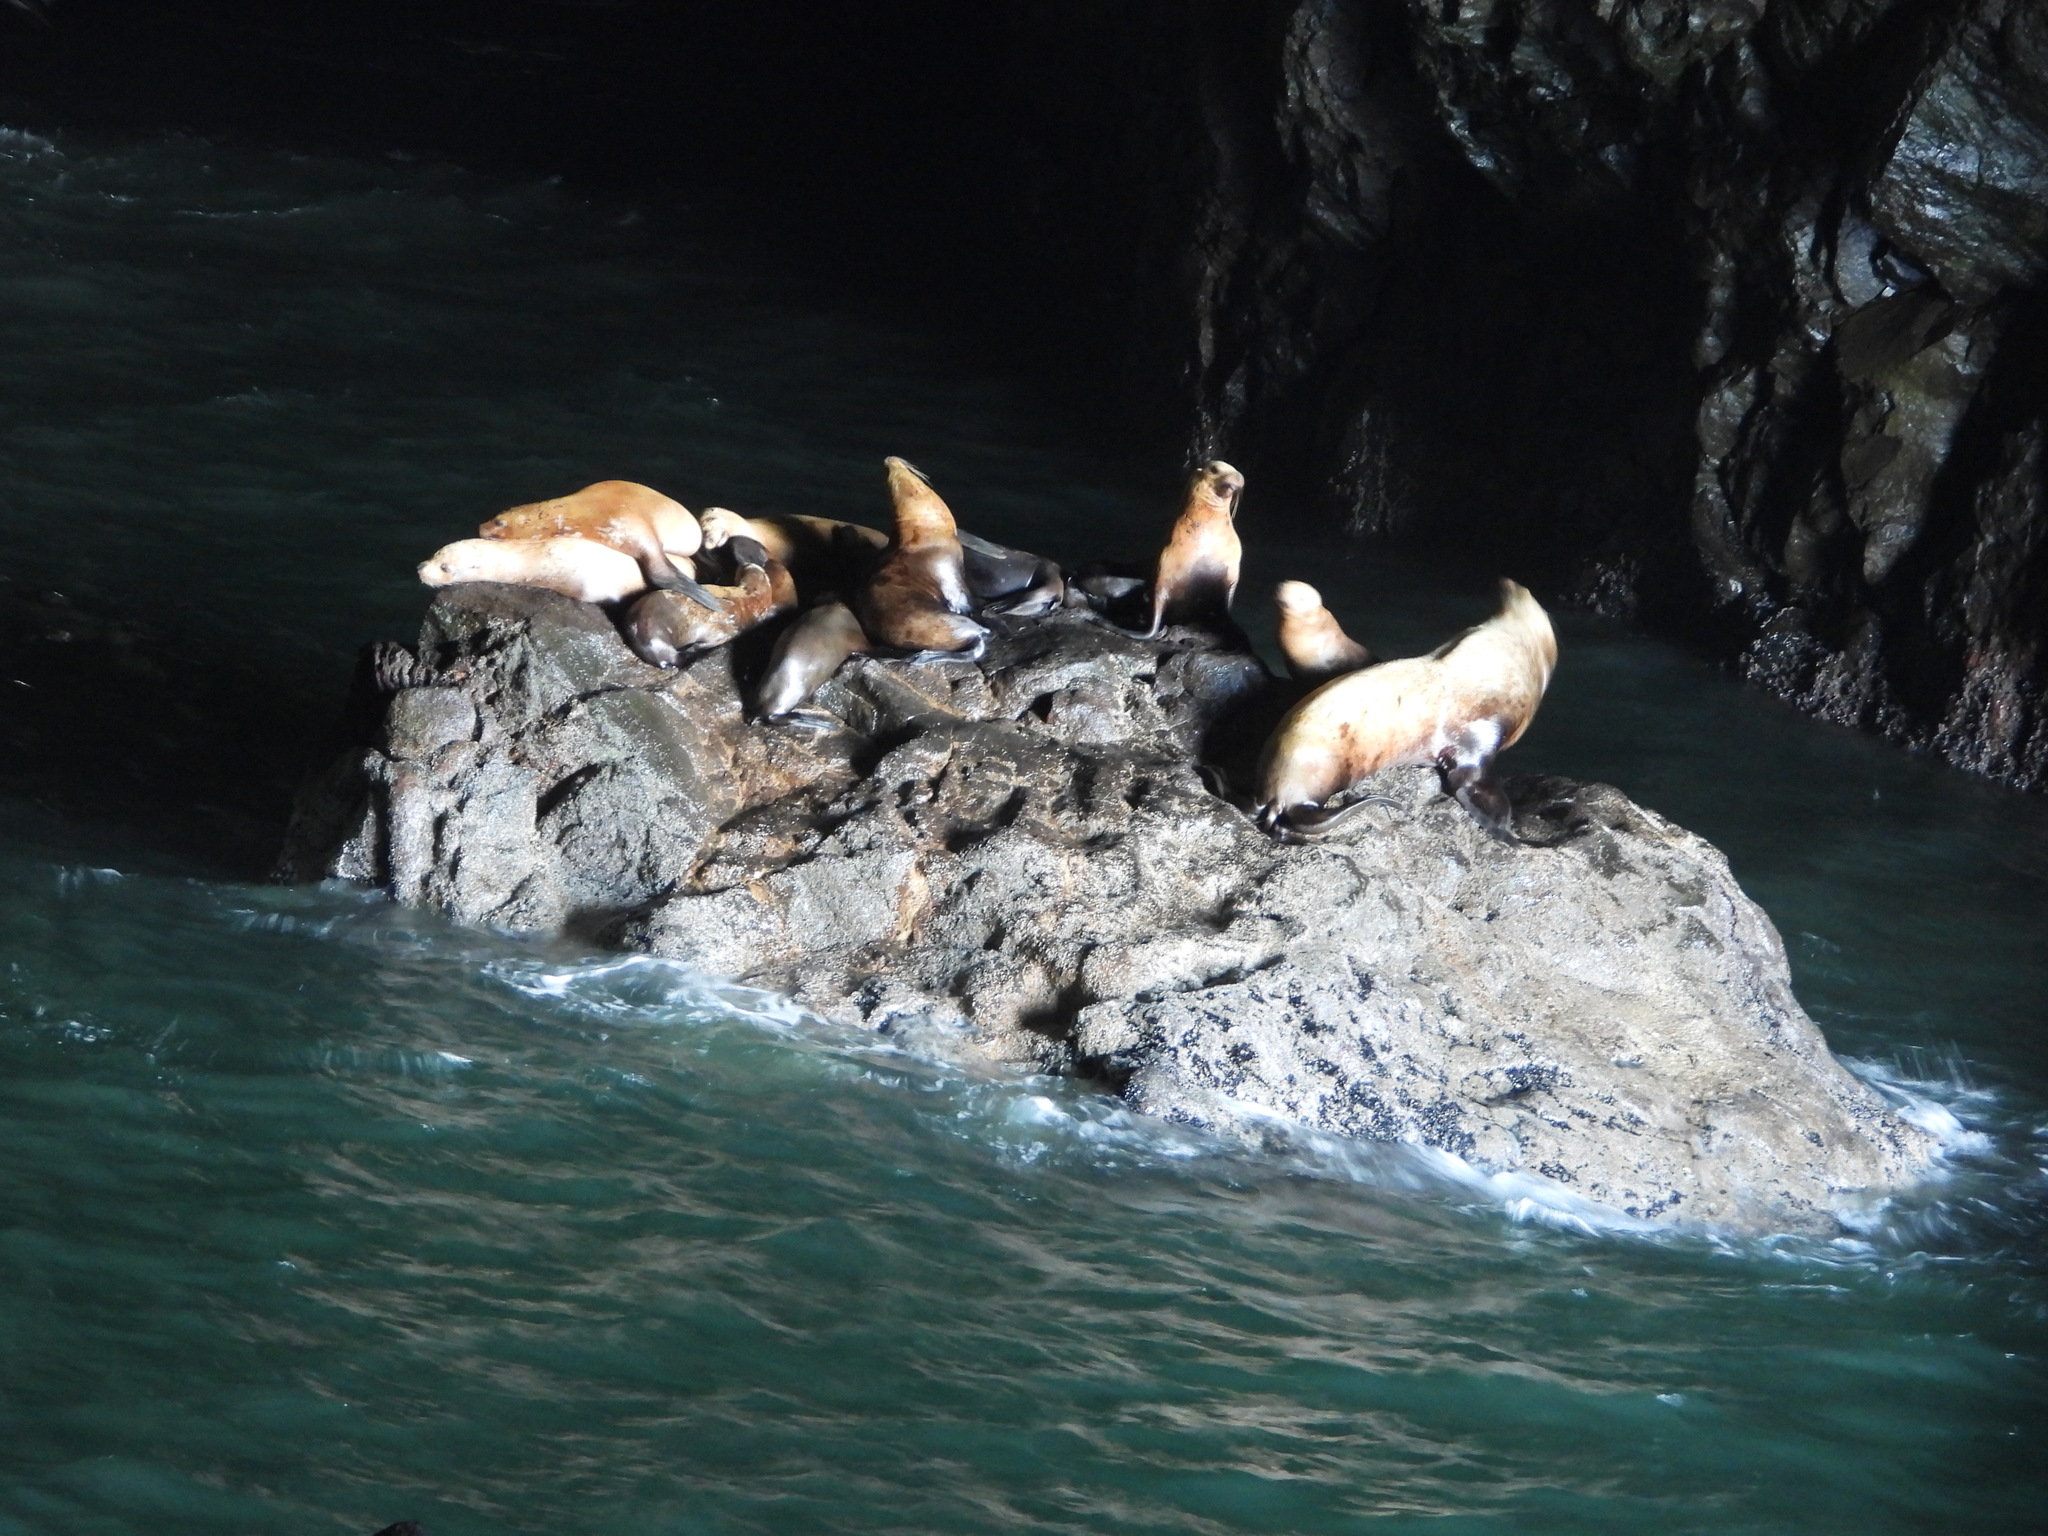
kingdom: Animalia
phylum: Chordata
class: Mammalia
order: Carnivora
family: Otariidae
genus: Eumetopias
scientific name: Eumetopias jubatus
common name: Steller sea lion
